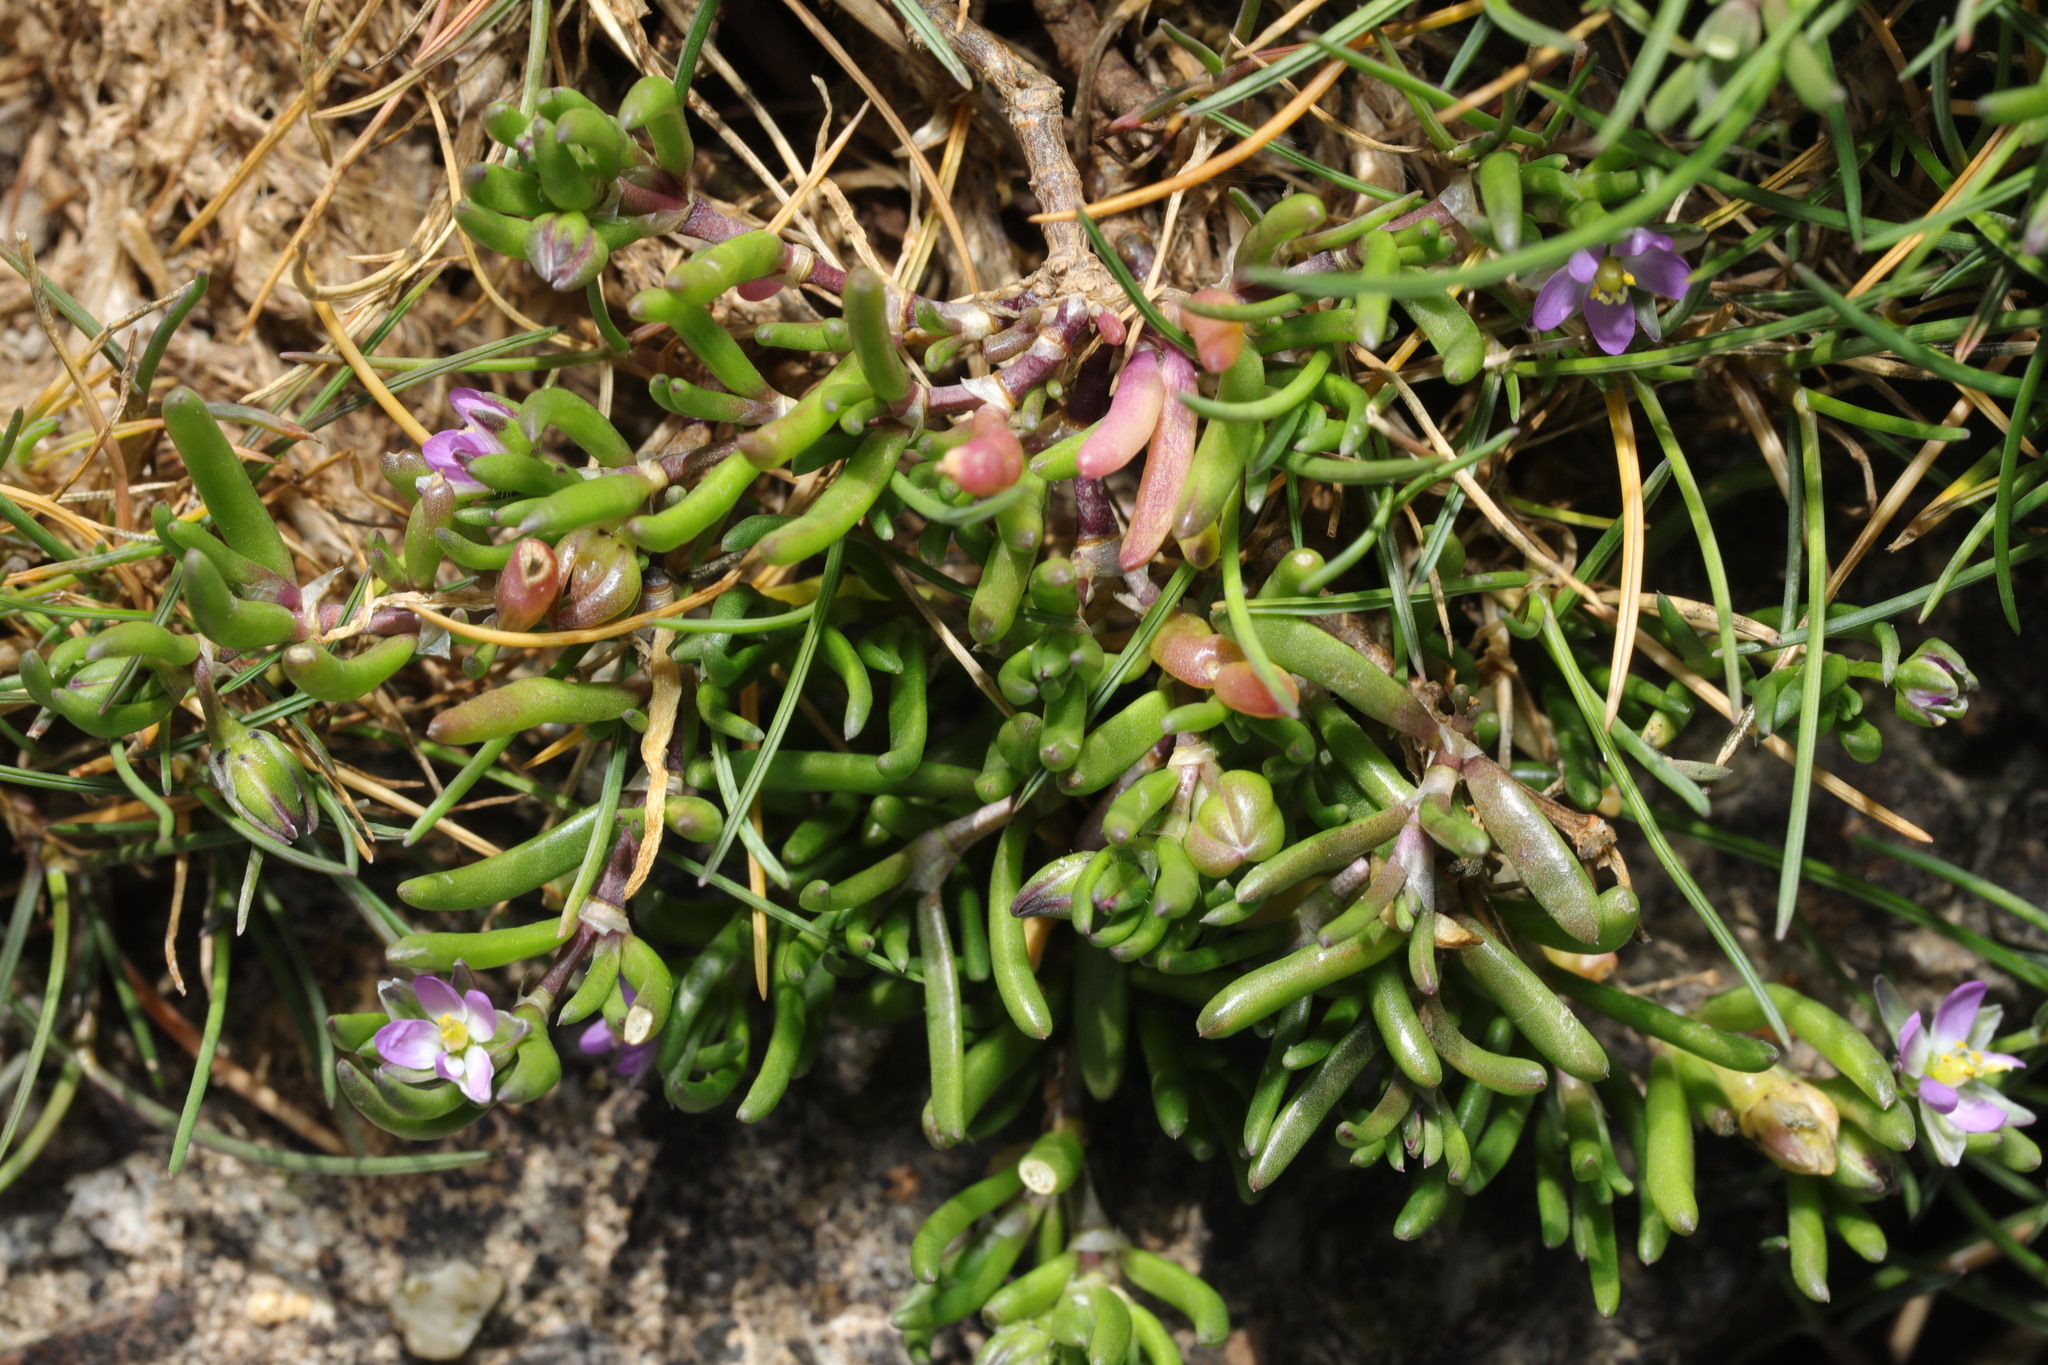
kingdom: Plantae
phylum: Tracheophyta
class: Magnoliopsida
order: Caryophyllales
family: Caryophyllaceae
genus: Spergularia
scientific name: Spergularia marina
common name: Lesser sea-spurrey
